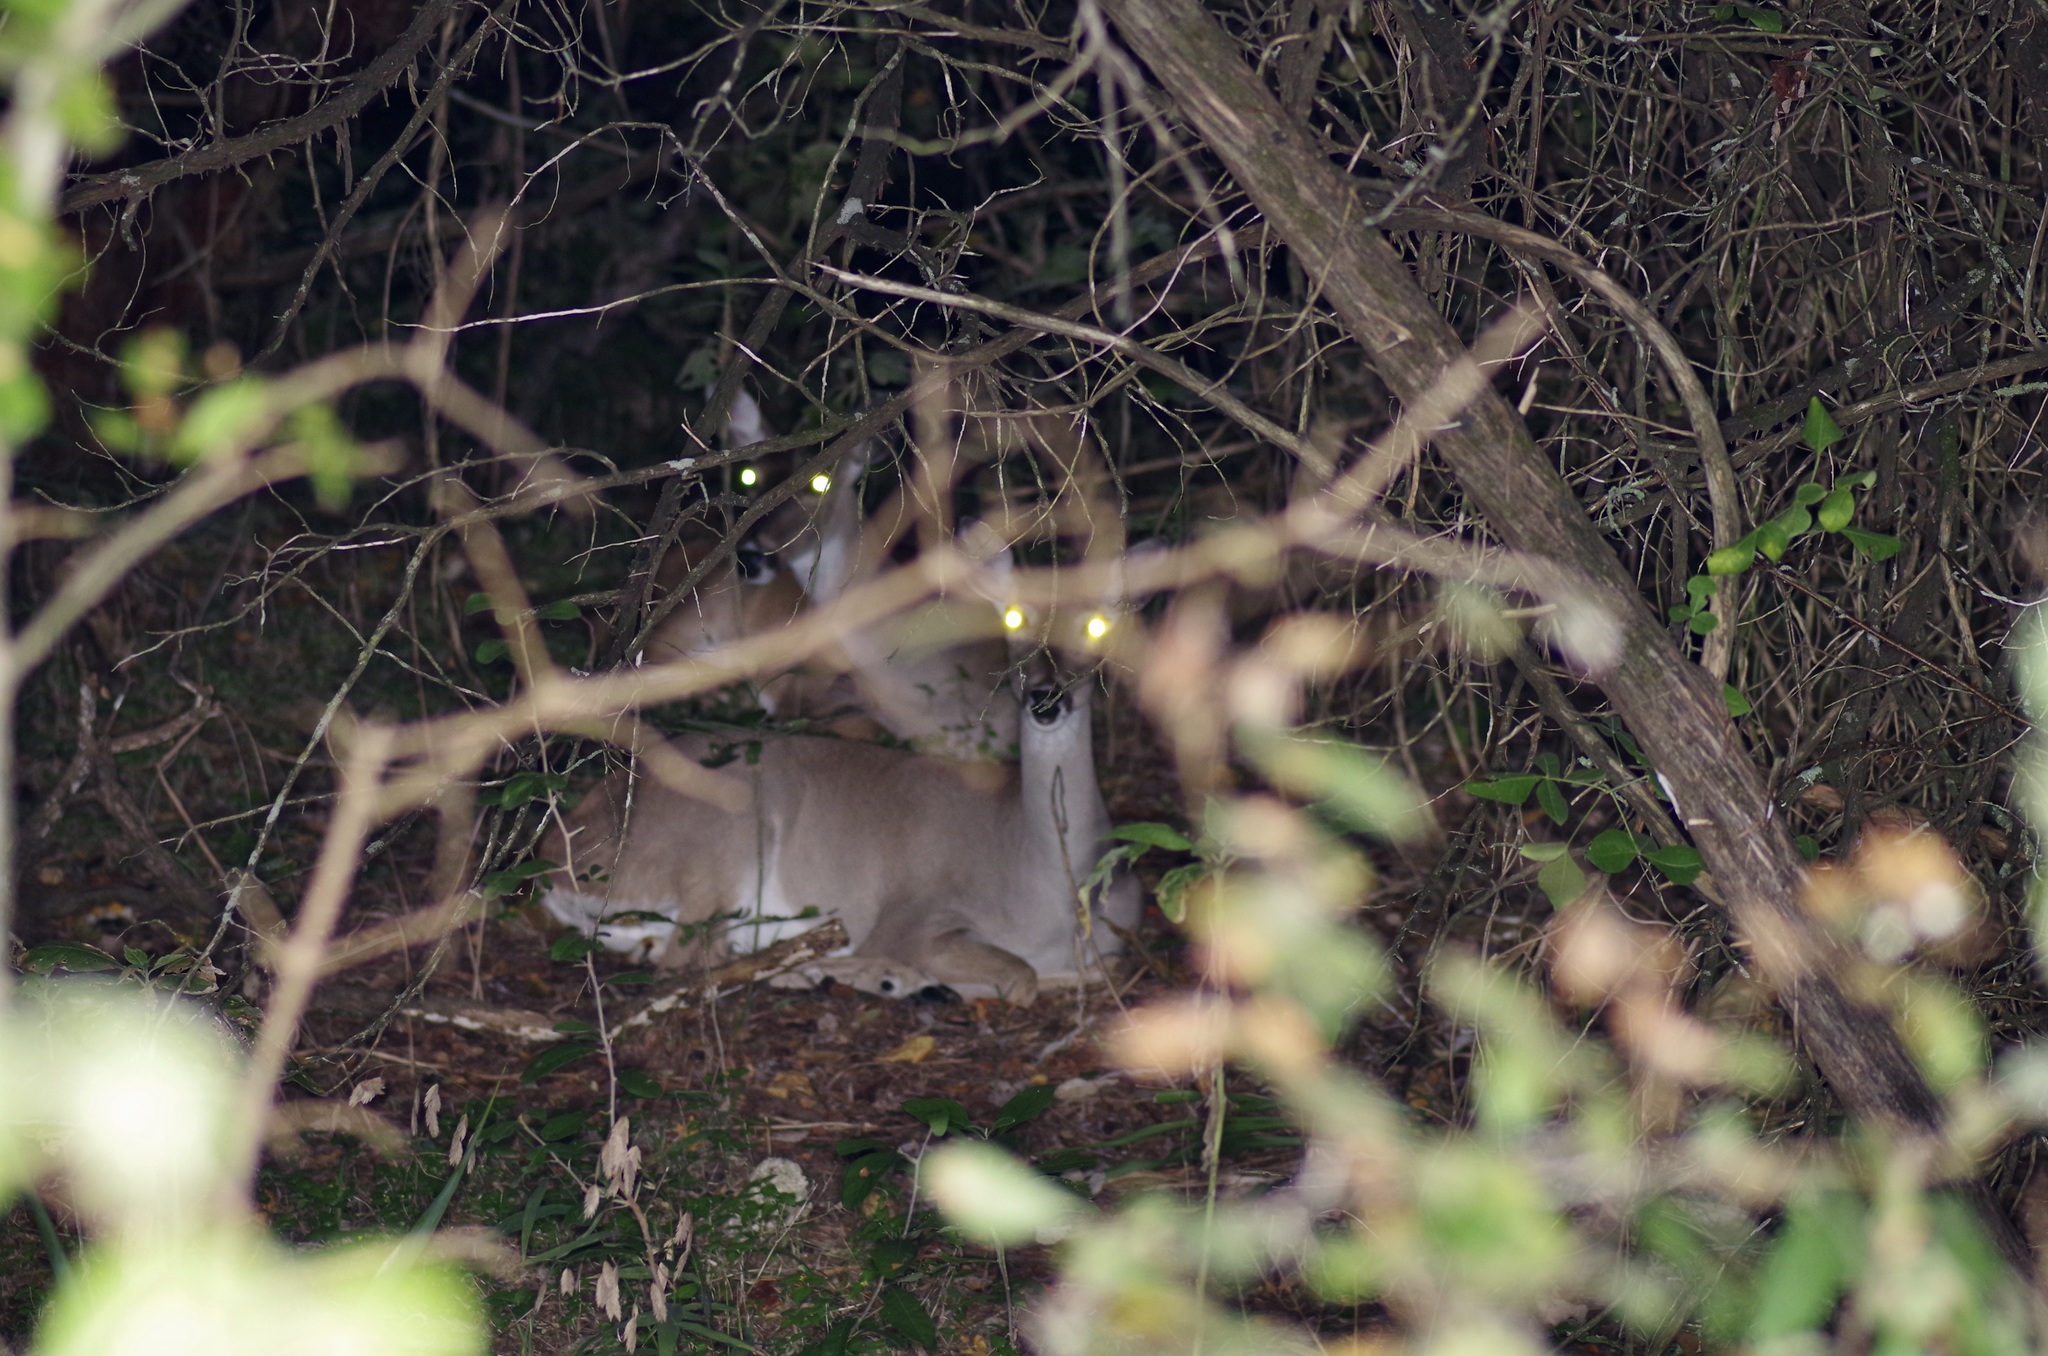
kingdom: Animalia
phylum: Chordata
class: Mammalia
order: Artiodactyla
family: Cervidae
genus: Odocoileus
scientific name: Odocoileus virginianus
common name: White-tailed deer
